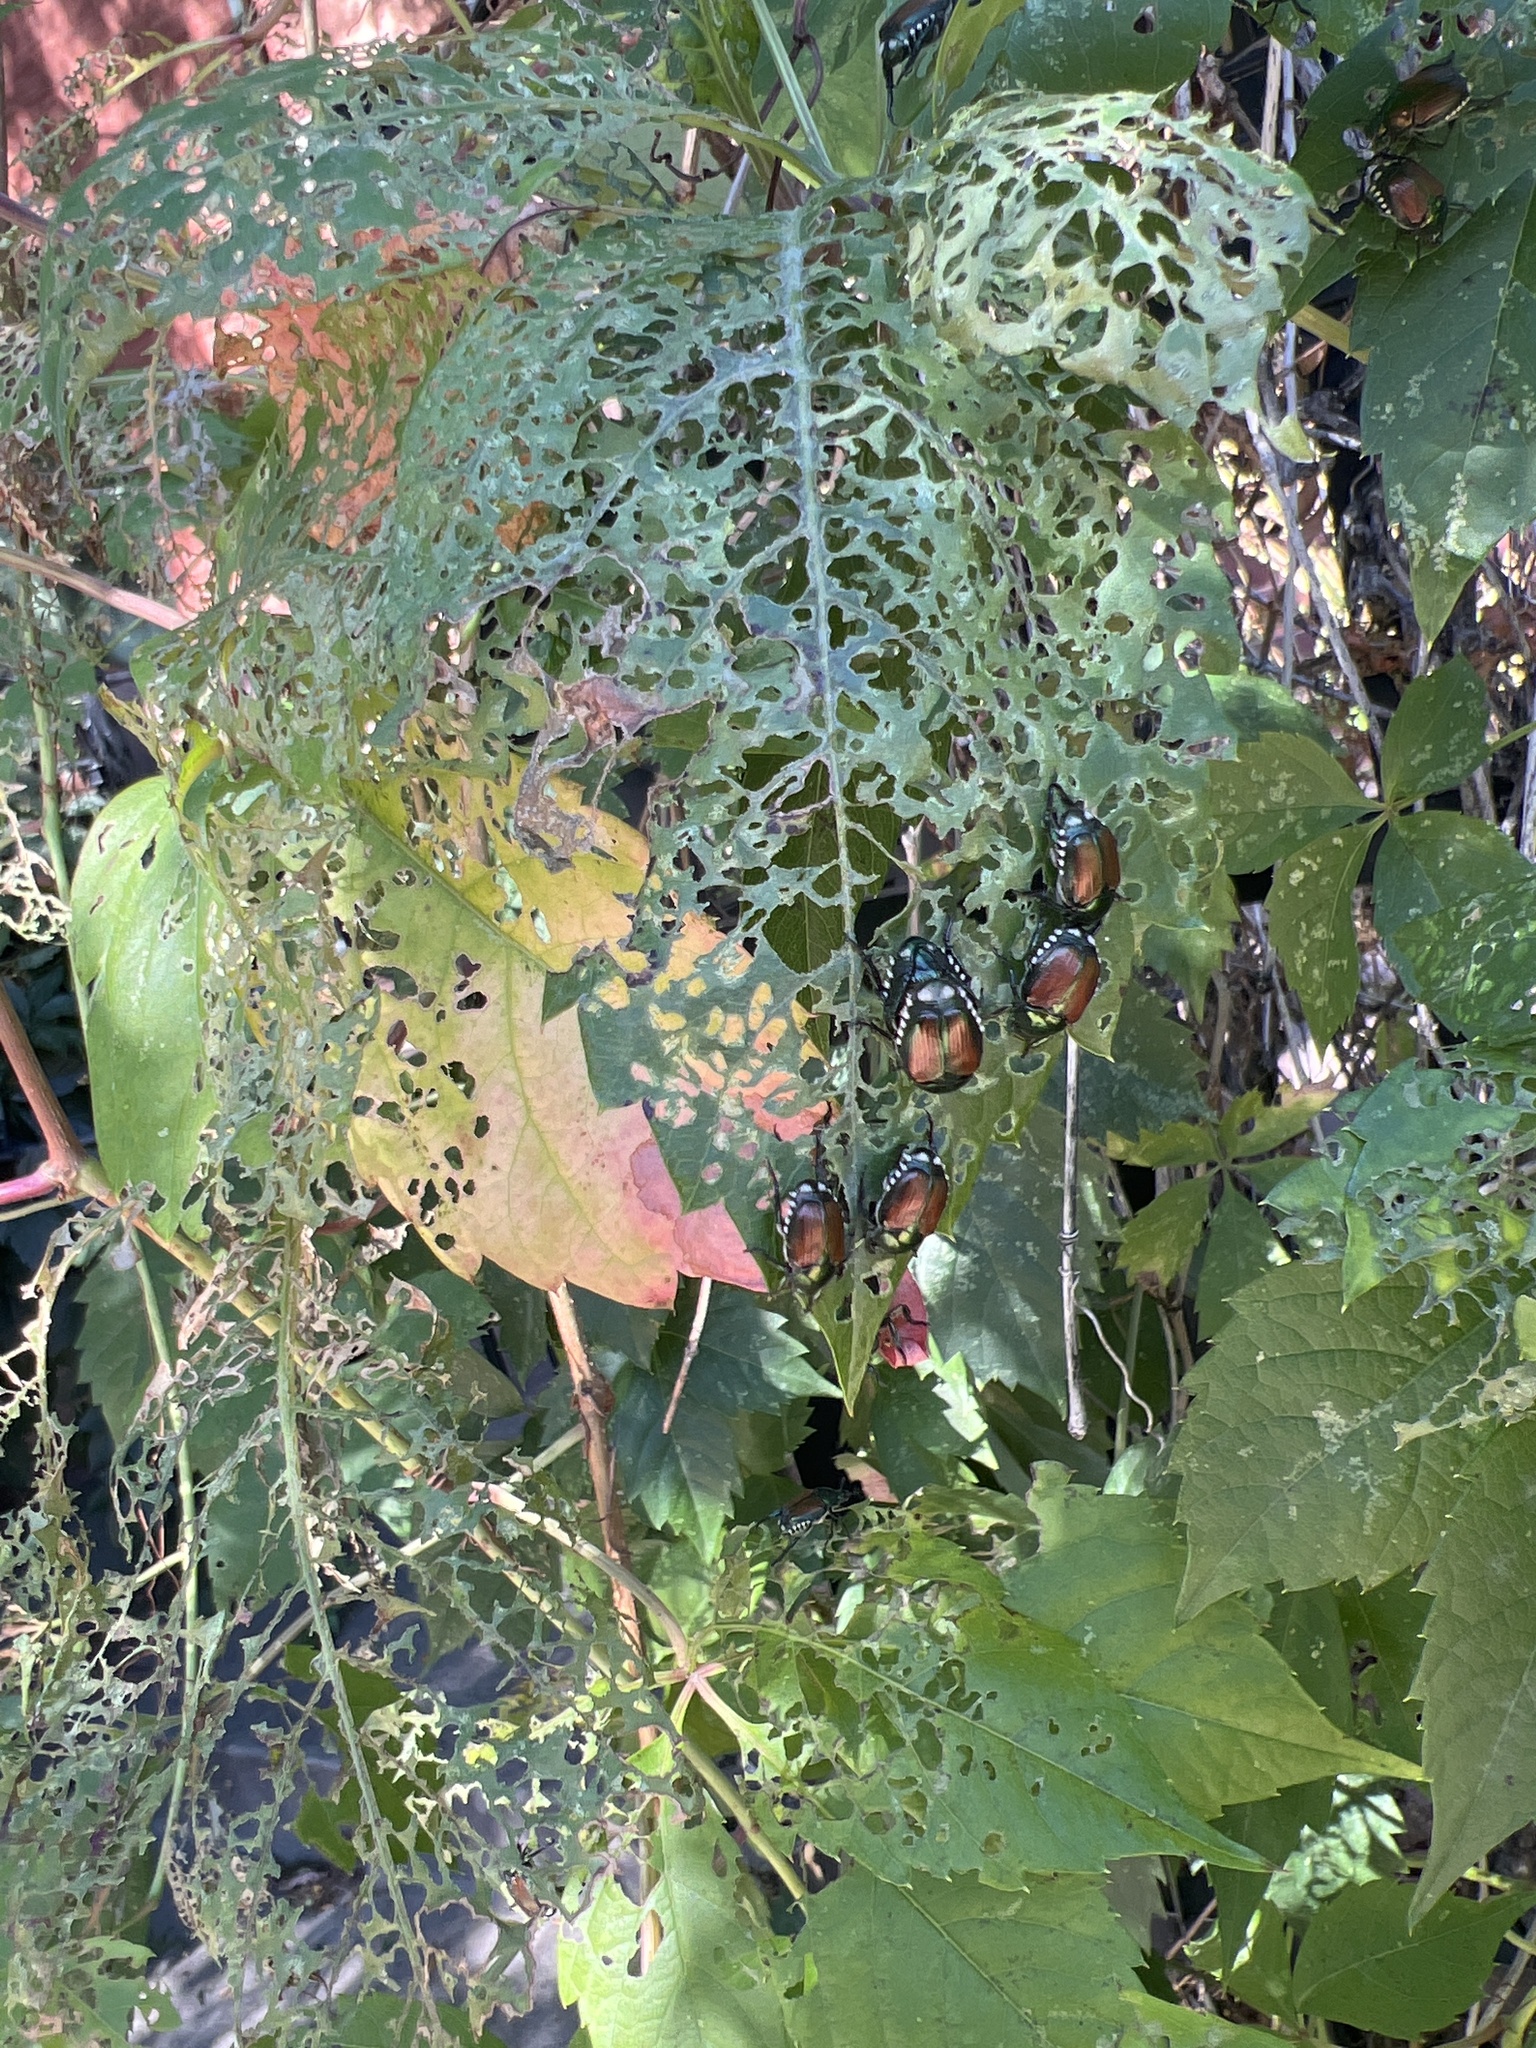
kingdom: Animalia
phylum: Arthropoda
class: Insecta
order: Coleoptera
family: Scarabaeidae
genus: Popillia
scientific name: Popillia japonica
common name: Japanese beetle
